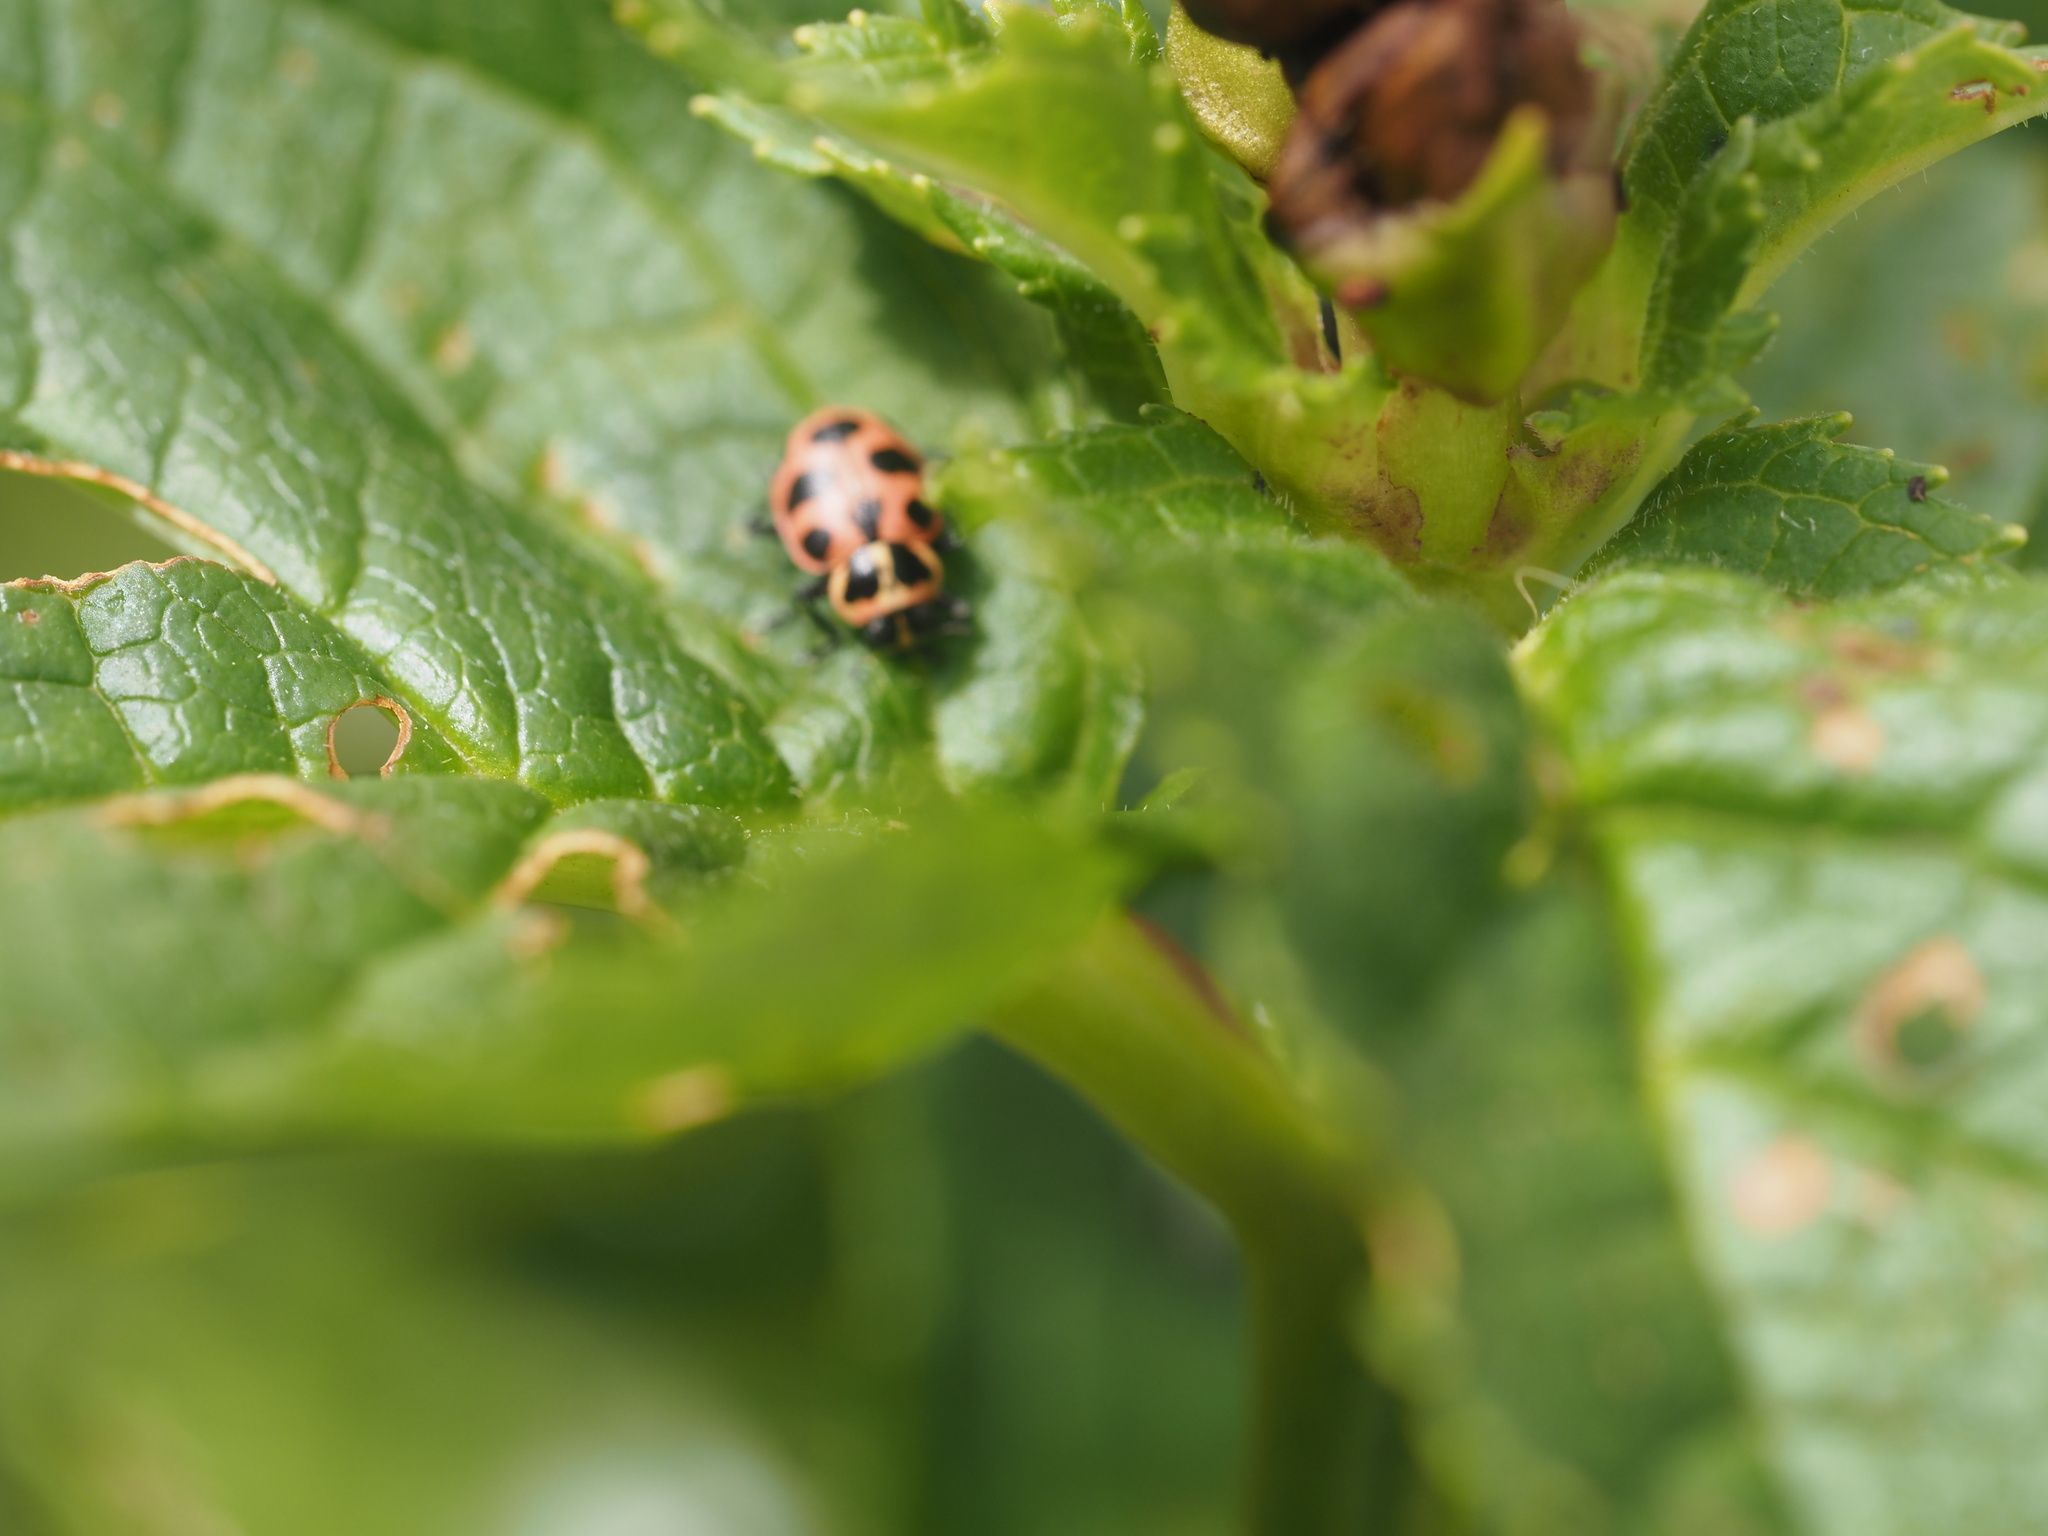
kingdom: Animalia
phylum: Arthropoda
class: Insecta
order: Coleoptera
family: Coccinellidae
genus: Coleomegilla
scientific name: Coleomegilla maculata
